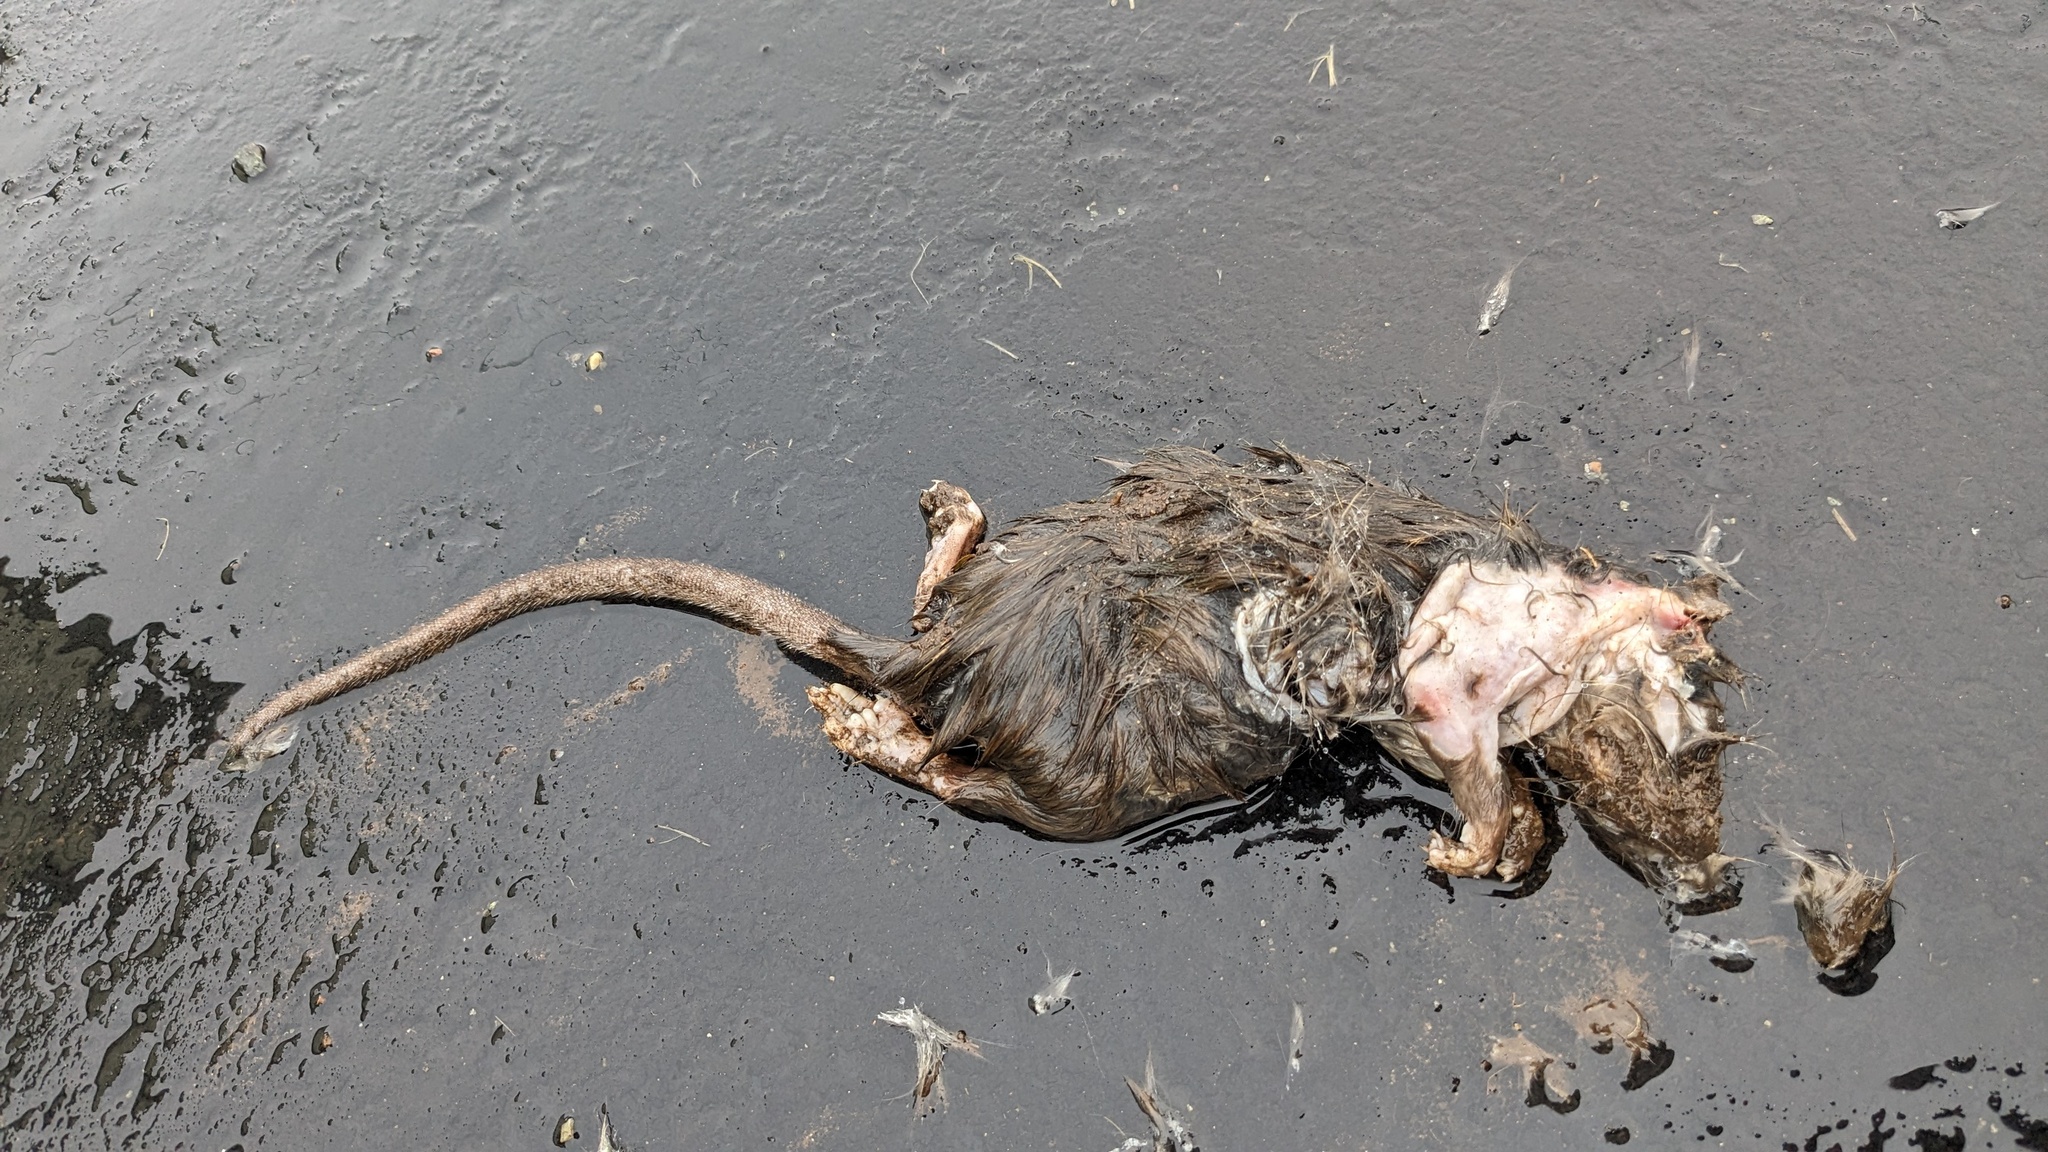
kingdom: Animalia
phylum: Chordata
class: Mammalia
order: Rodentia
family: Muridae
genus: Rattus
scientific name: Rattus norvegicus
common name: Brown rat
